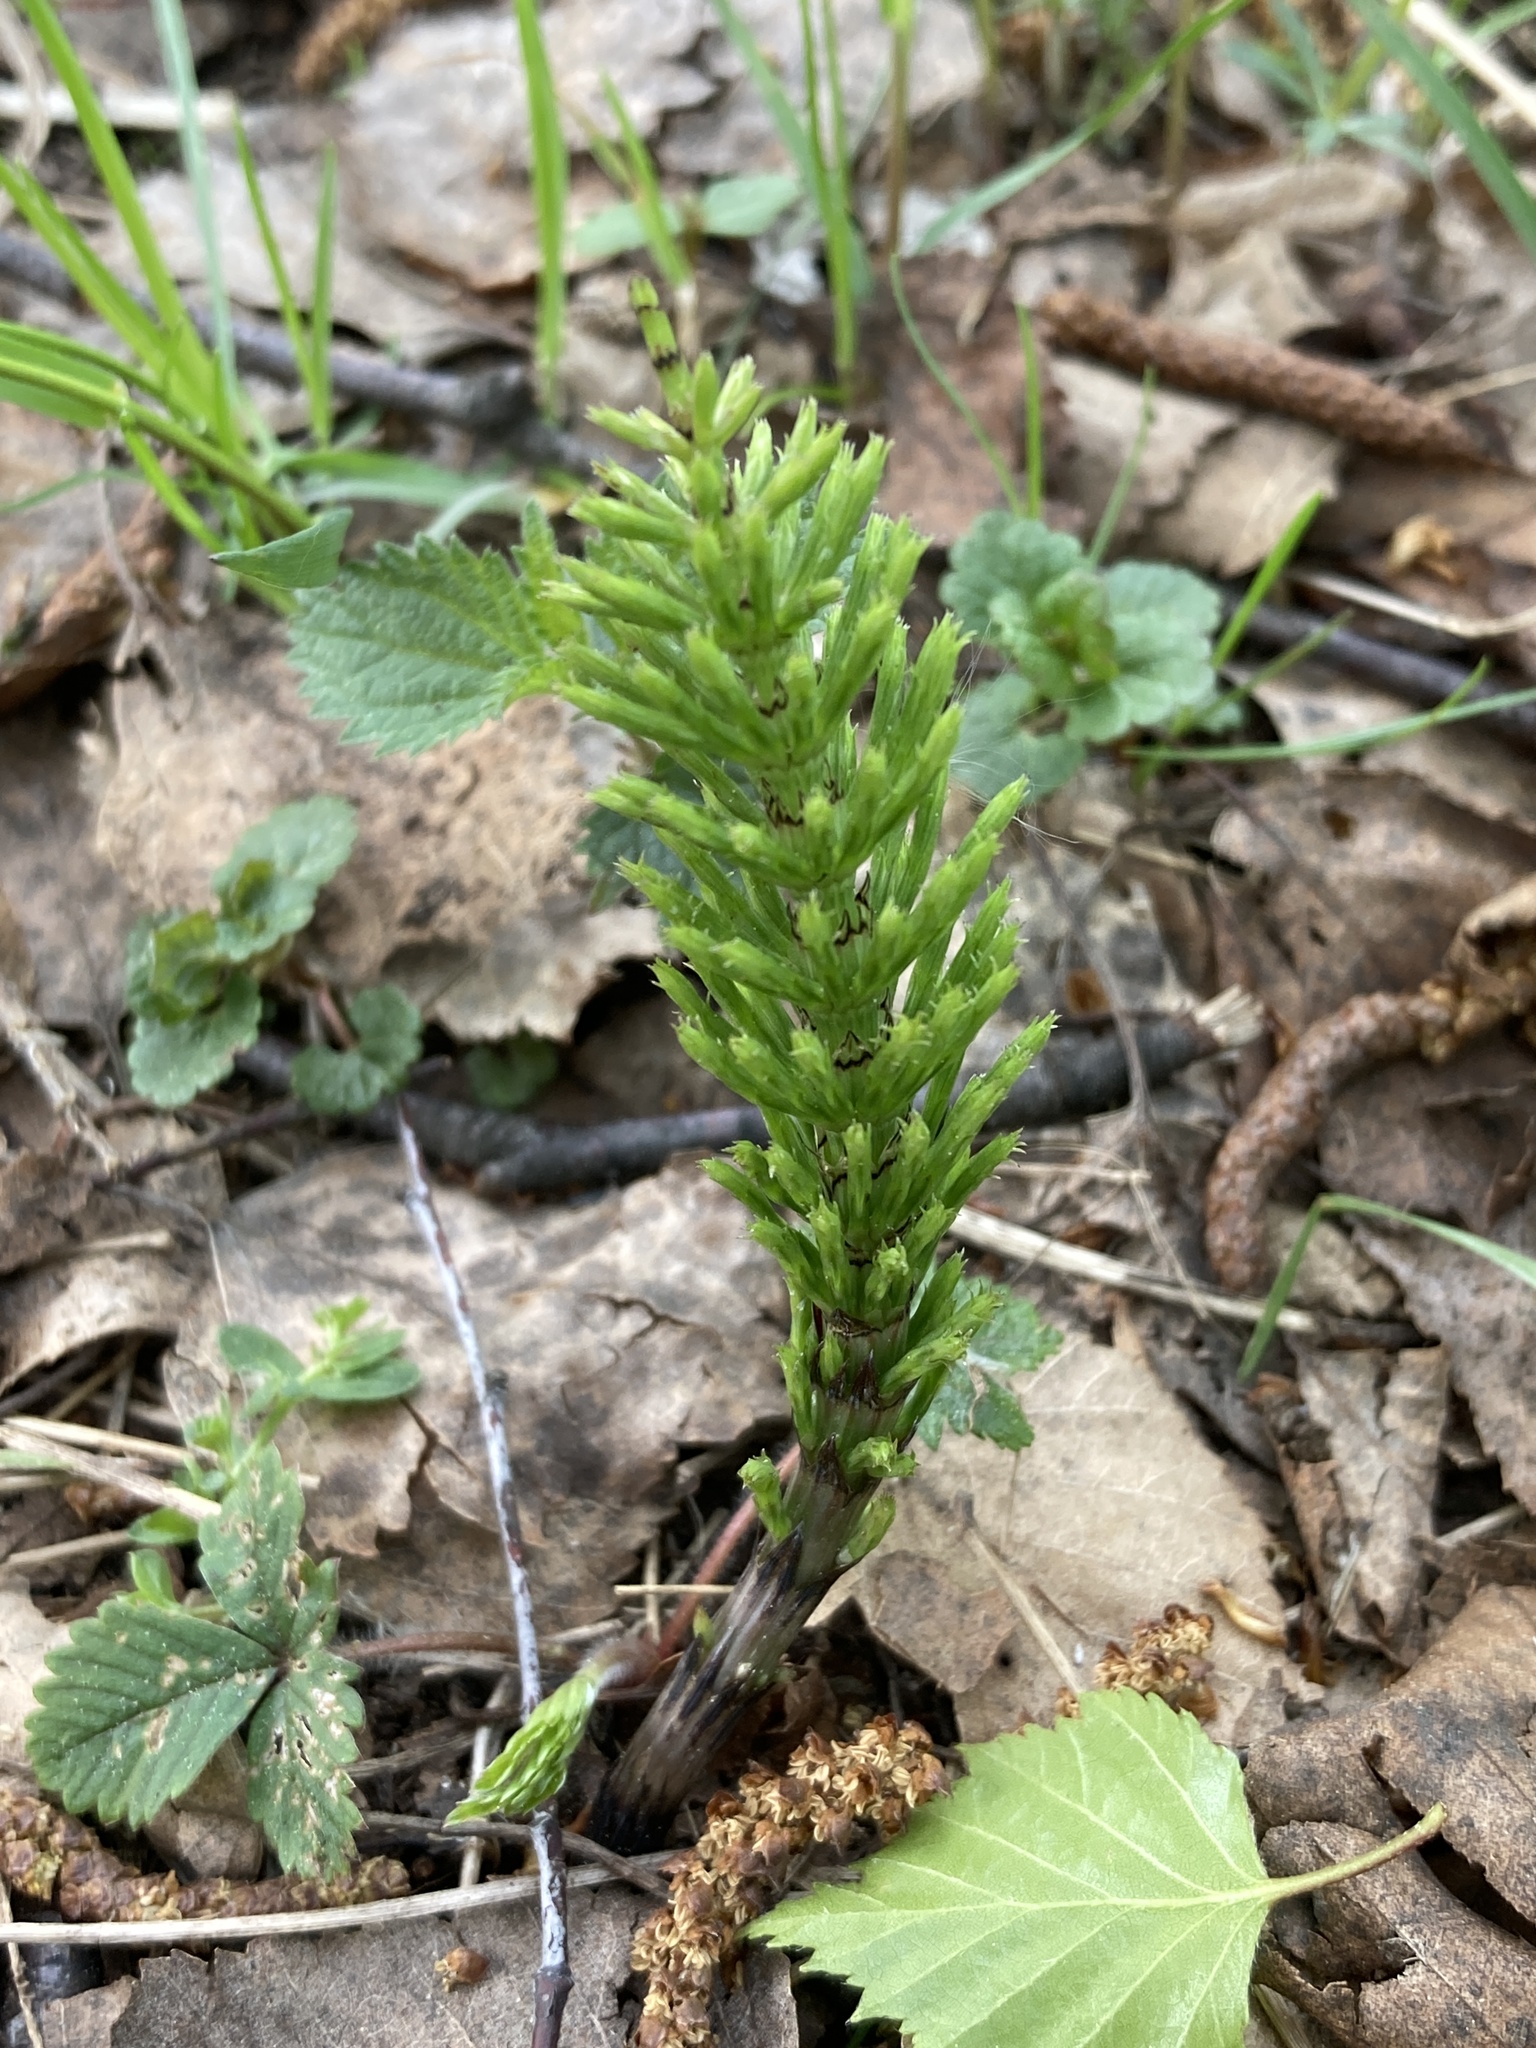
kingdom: Plantae
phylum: Tracheophyta
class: Polypodiopsida
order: Equisetales
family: Equisetaceae
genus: Equisetum
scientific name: Equisetum arvense
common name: Field horsetail
